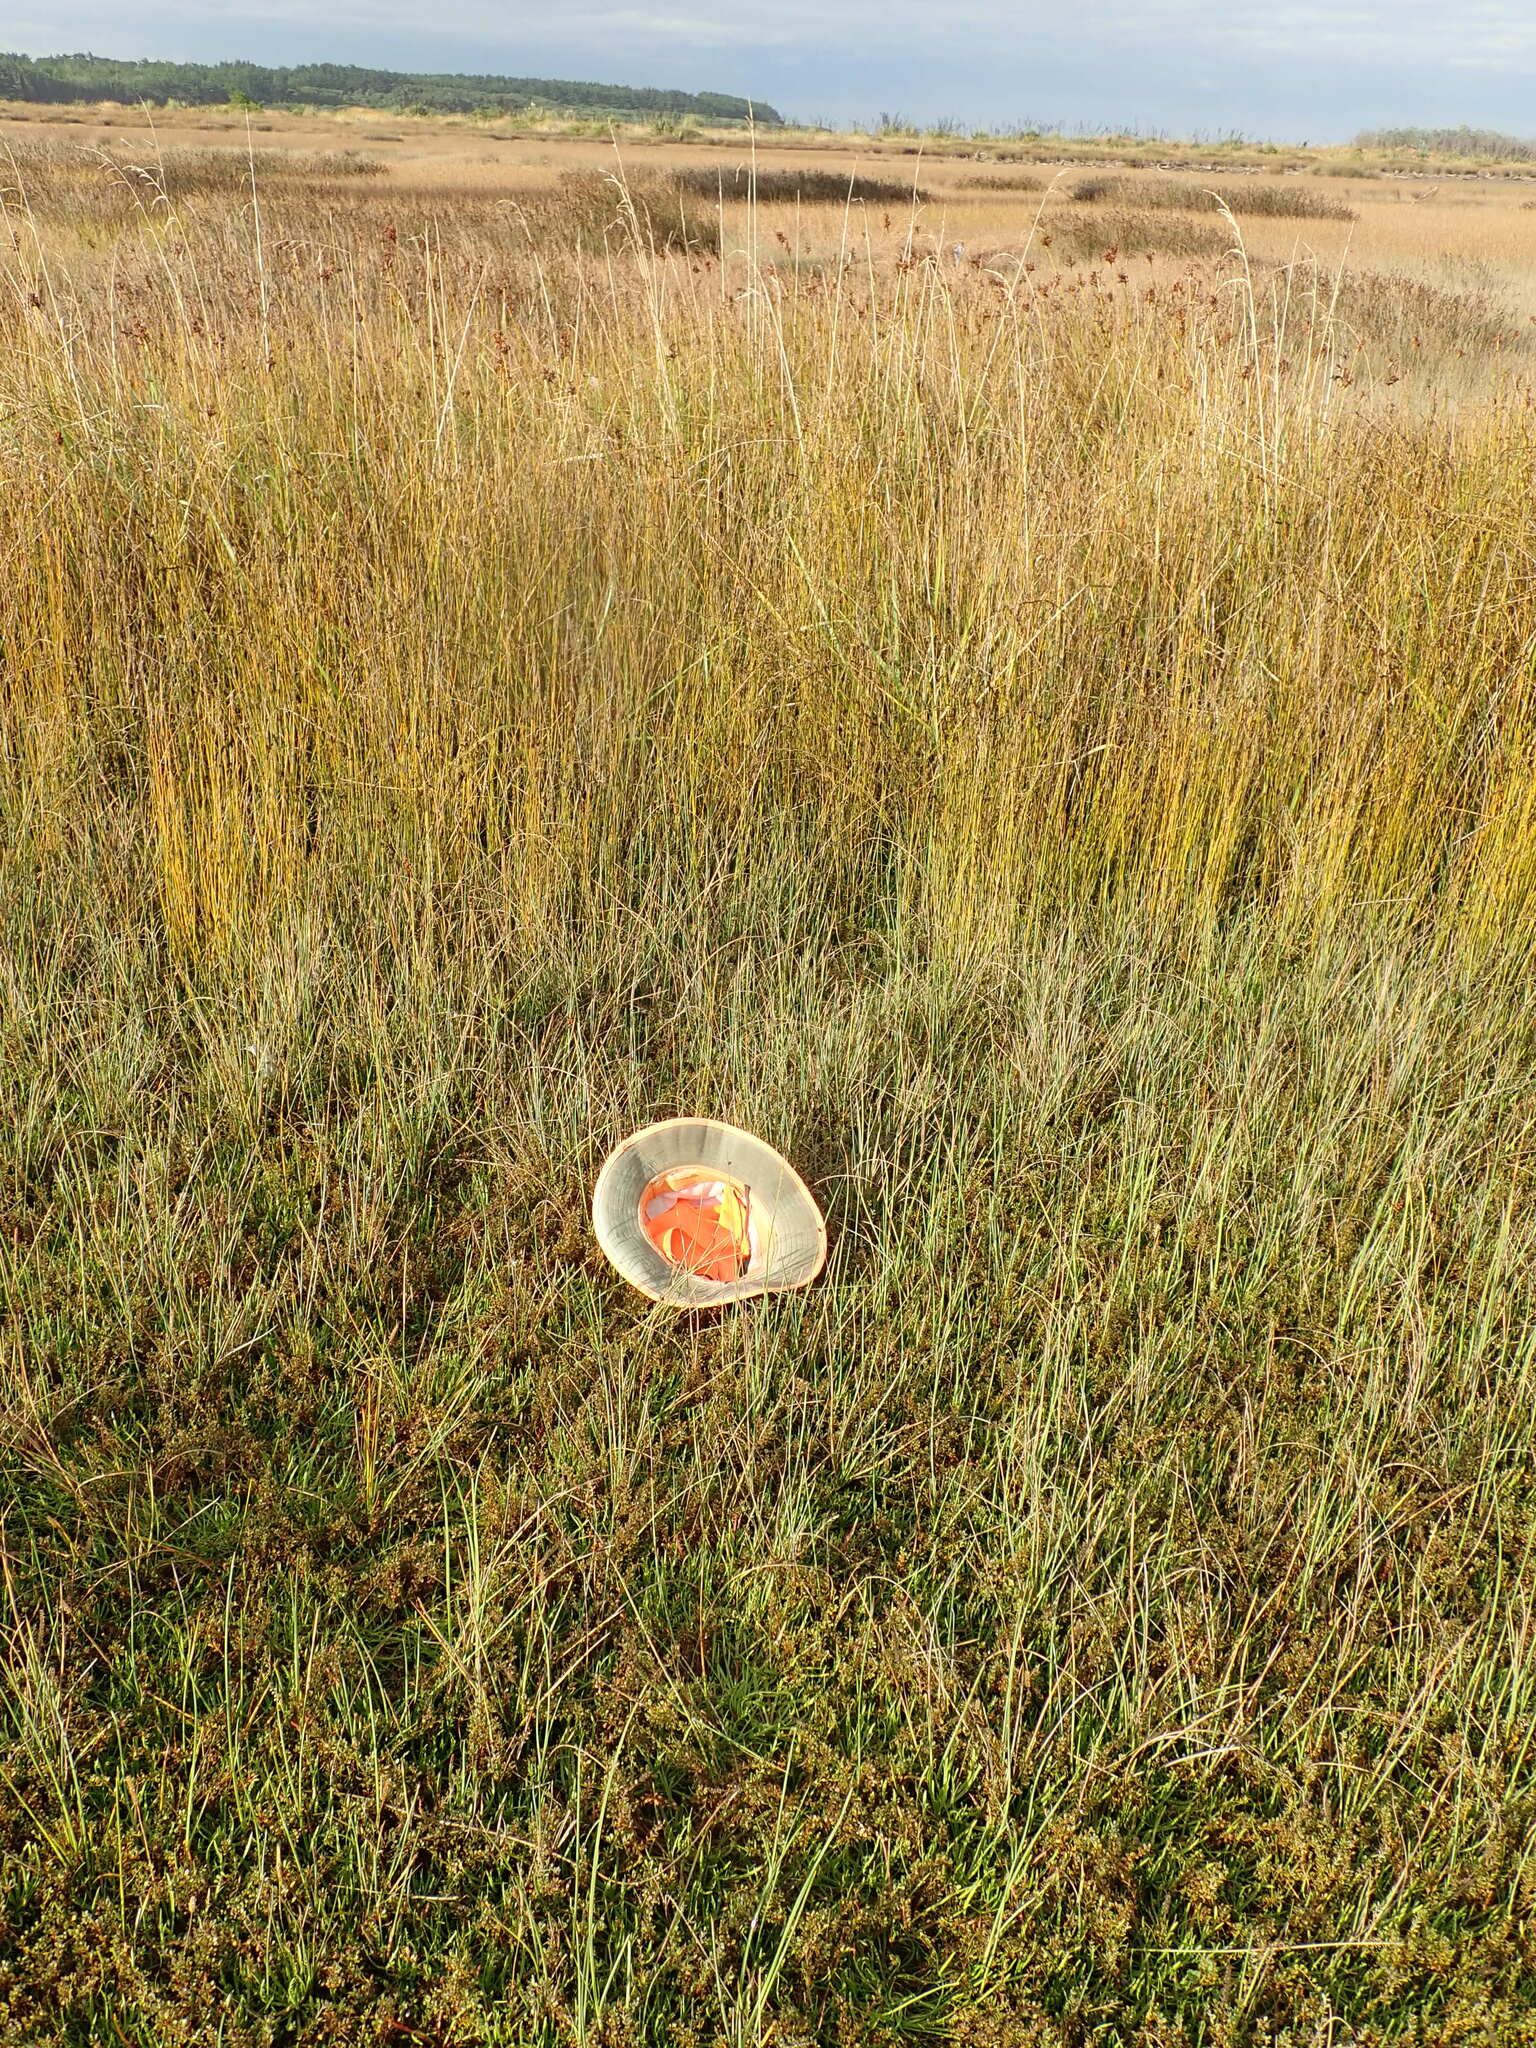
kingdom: Plantae
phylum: Tracheophyta
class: Magnoliopsida
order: Ericales
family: Primulaceae
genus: Samolus
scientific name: Samolus repens
